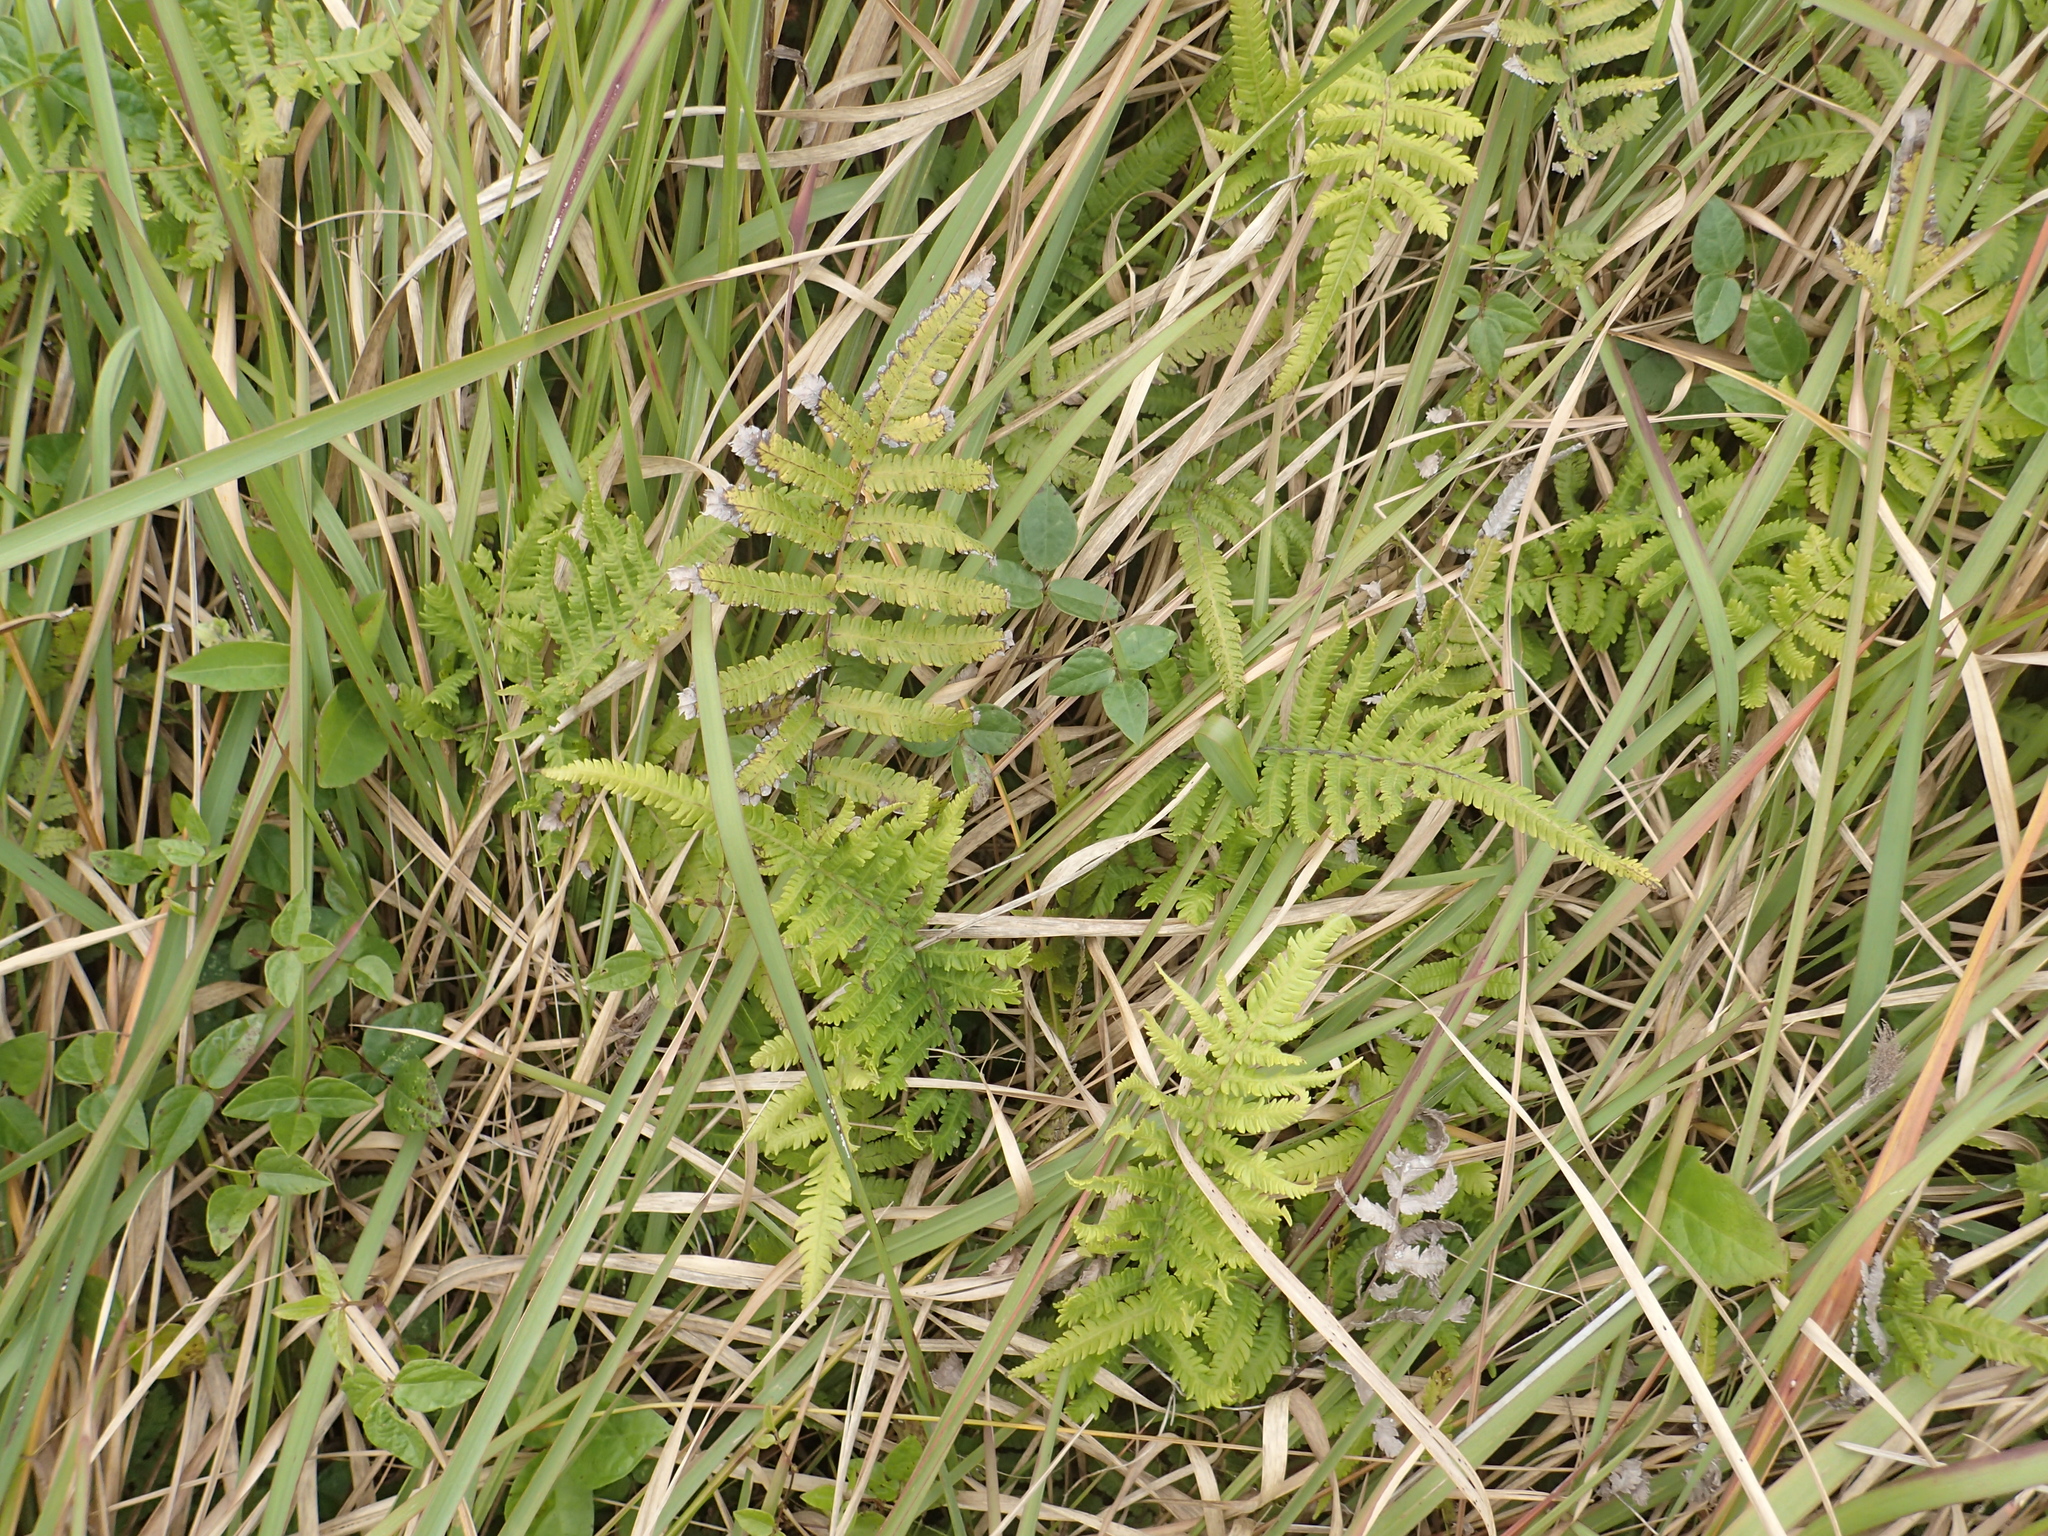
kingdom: Plantae
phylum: Tracheophyta
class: Polypodiopsida
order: Polypodiales
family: Thelypteridaceae
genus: Christella
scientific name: Christella acuminata
